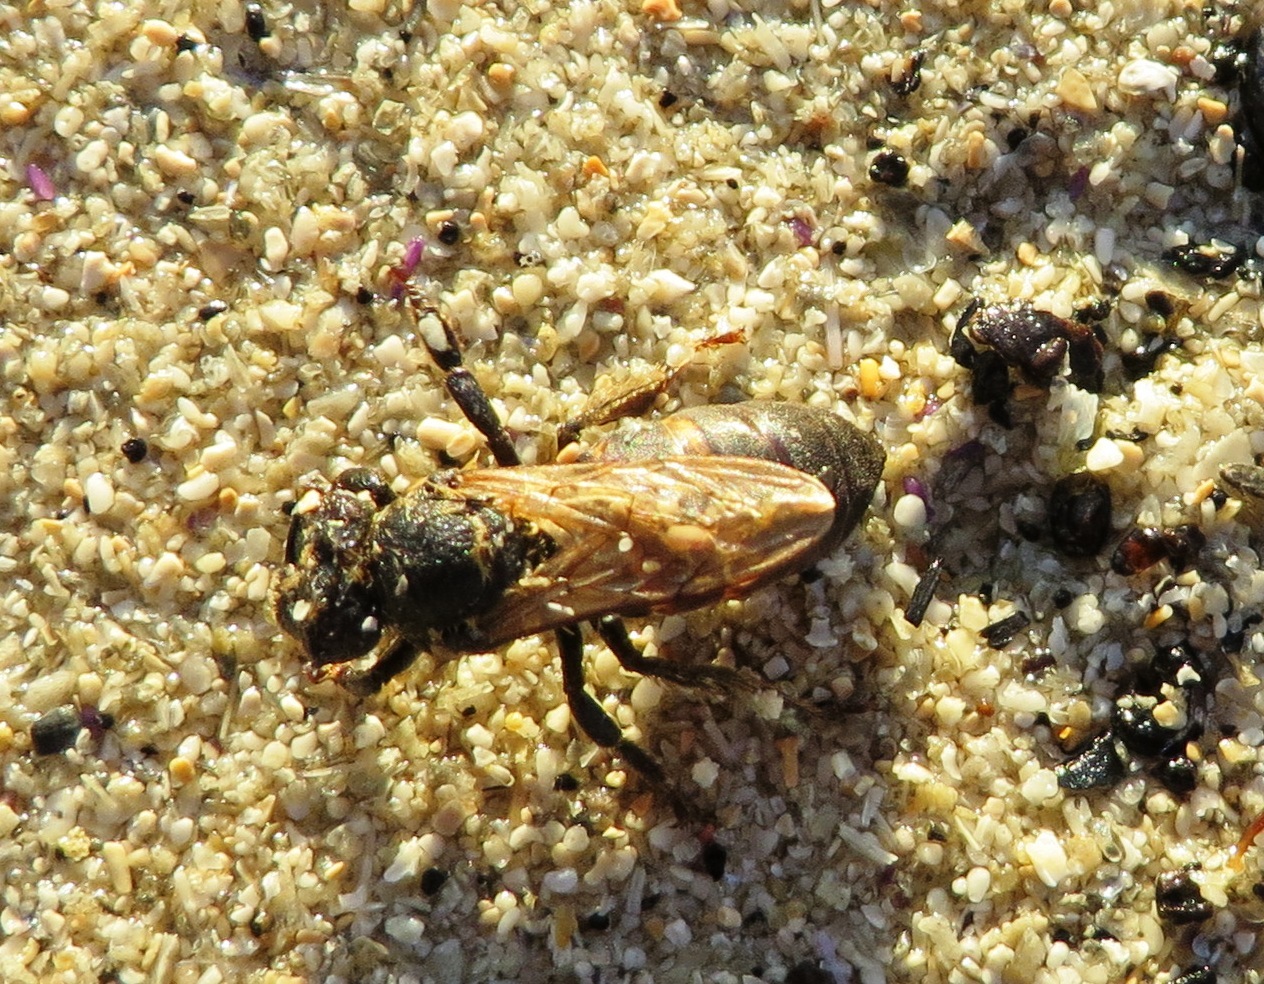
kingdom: Animalia
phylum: Arthropoda
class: Insecta
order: Hymenoptera
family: Apidae
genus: Apis
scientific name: Apis mellifera
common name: Honey bee
